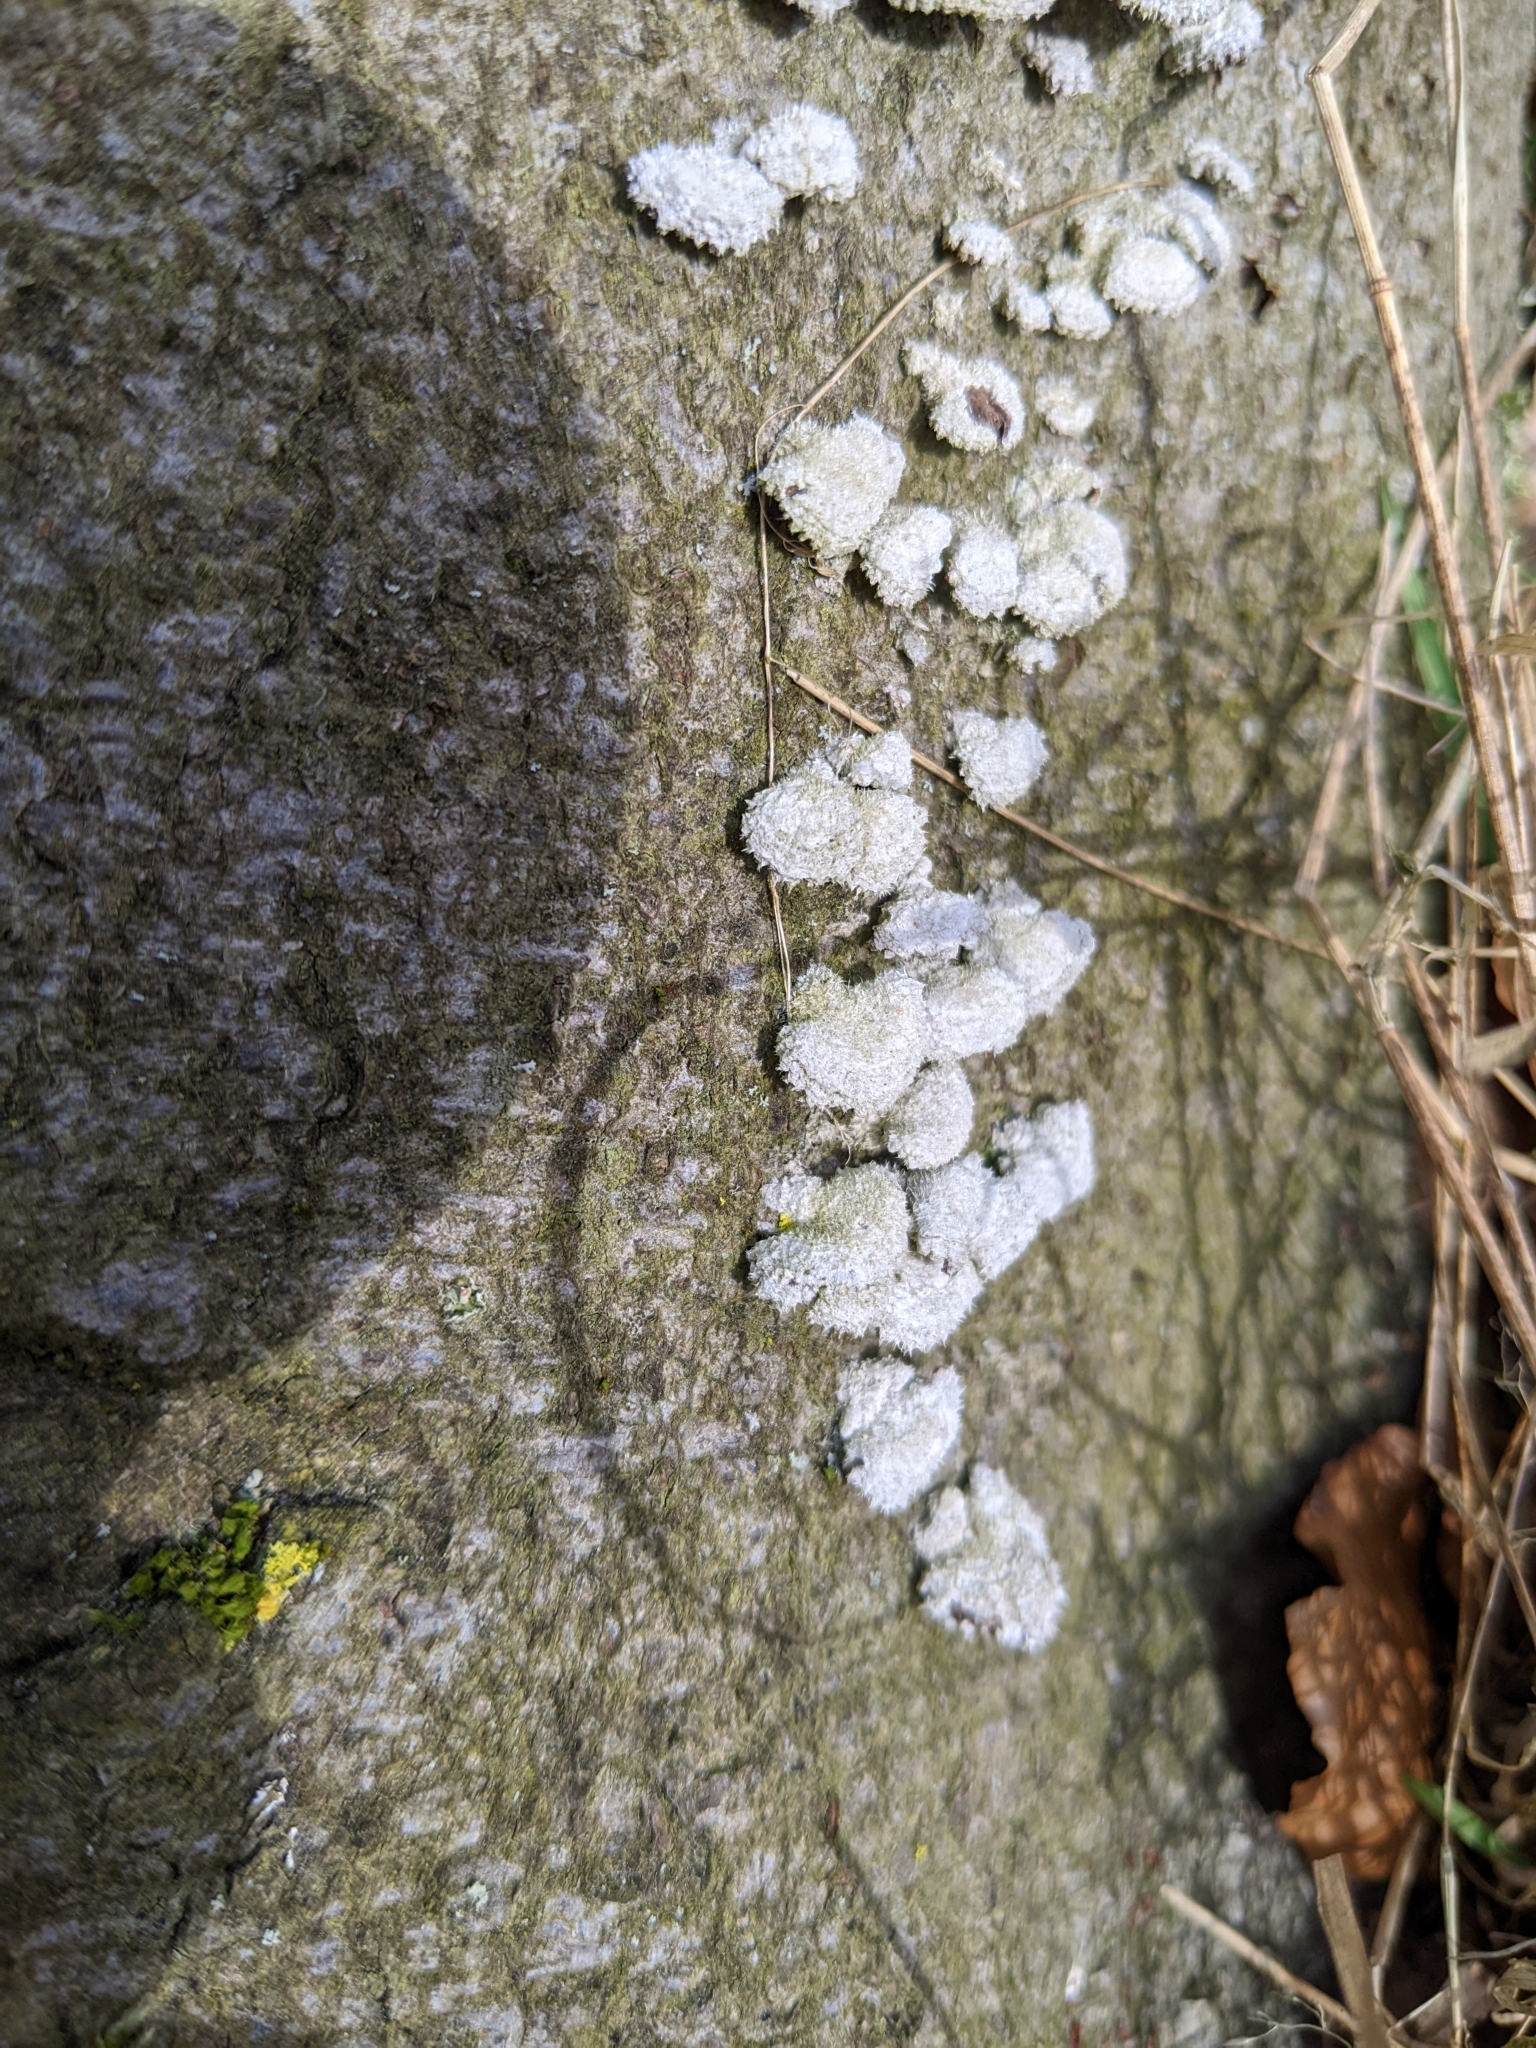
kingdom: Fungi
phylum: Basidiomycota
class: Agaricomycetes
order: Agaricales
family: Schizophyllaceae
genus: Schizophyllum
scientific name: Schizophyllum commune
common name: Common porecrust
